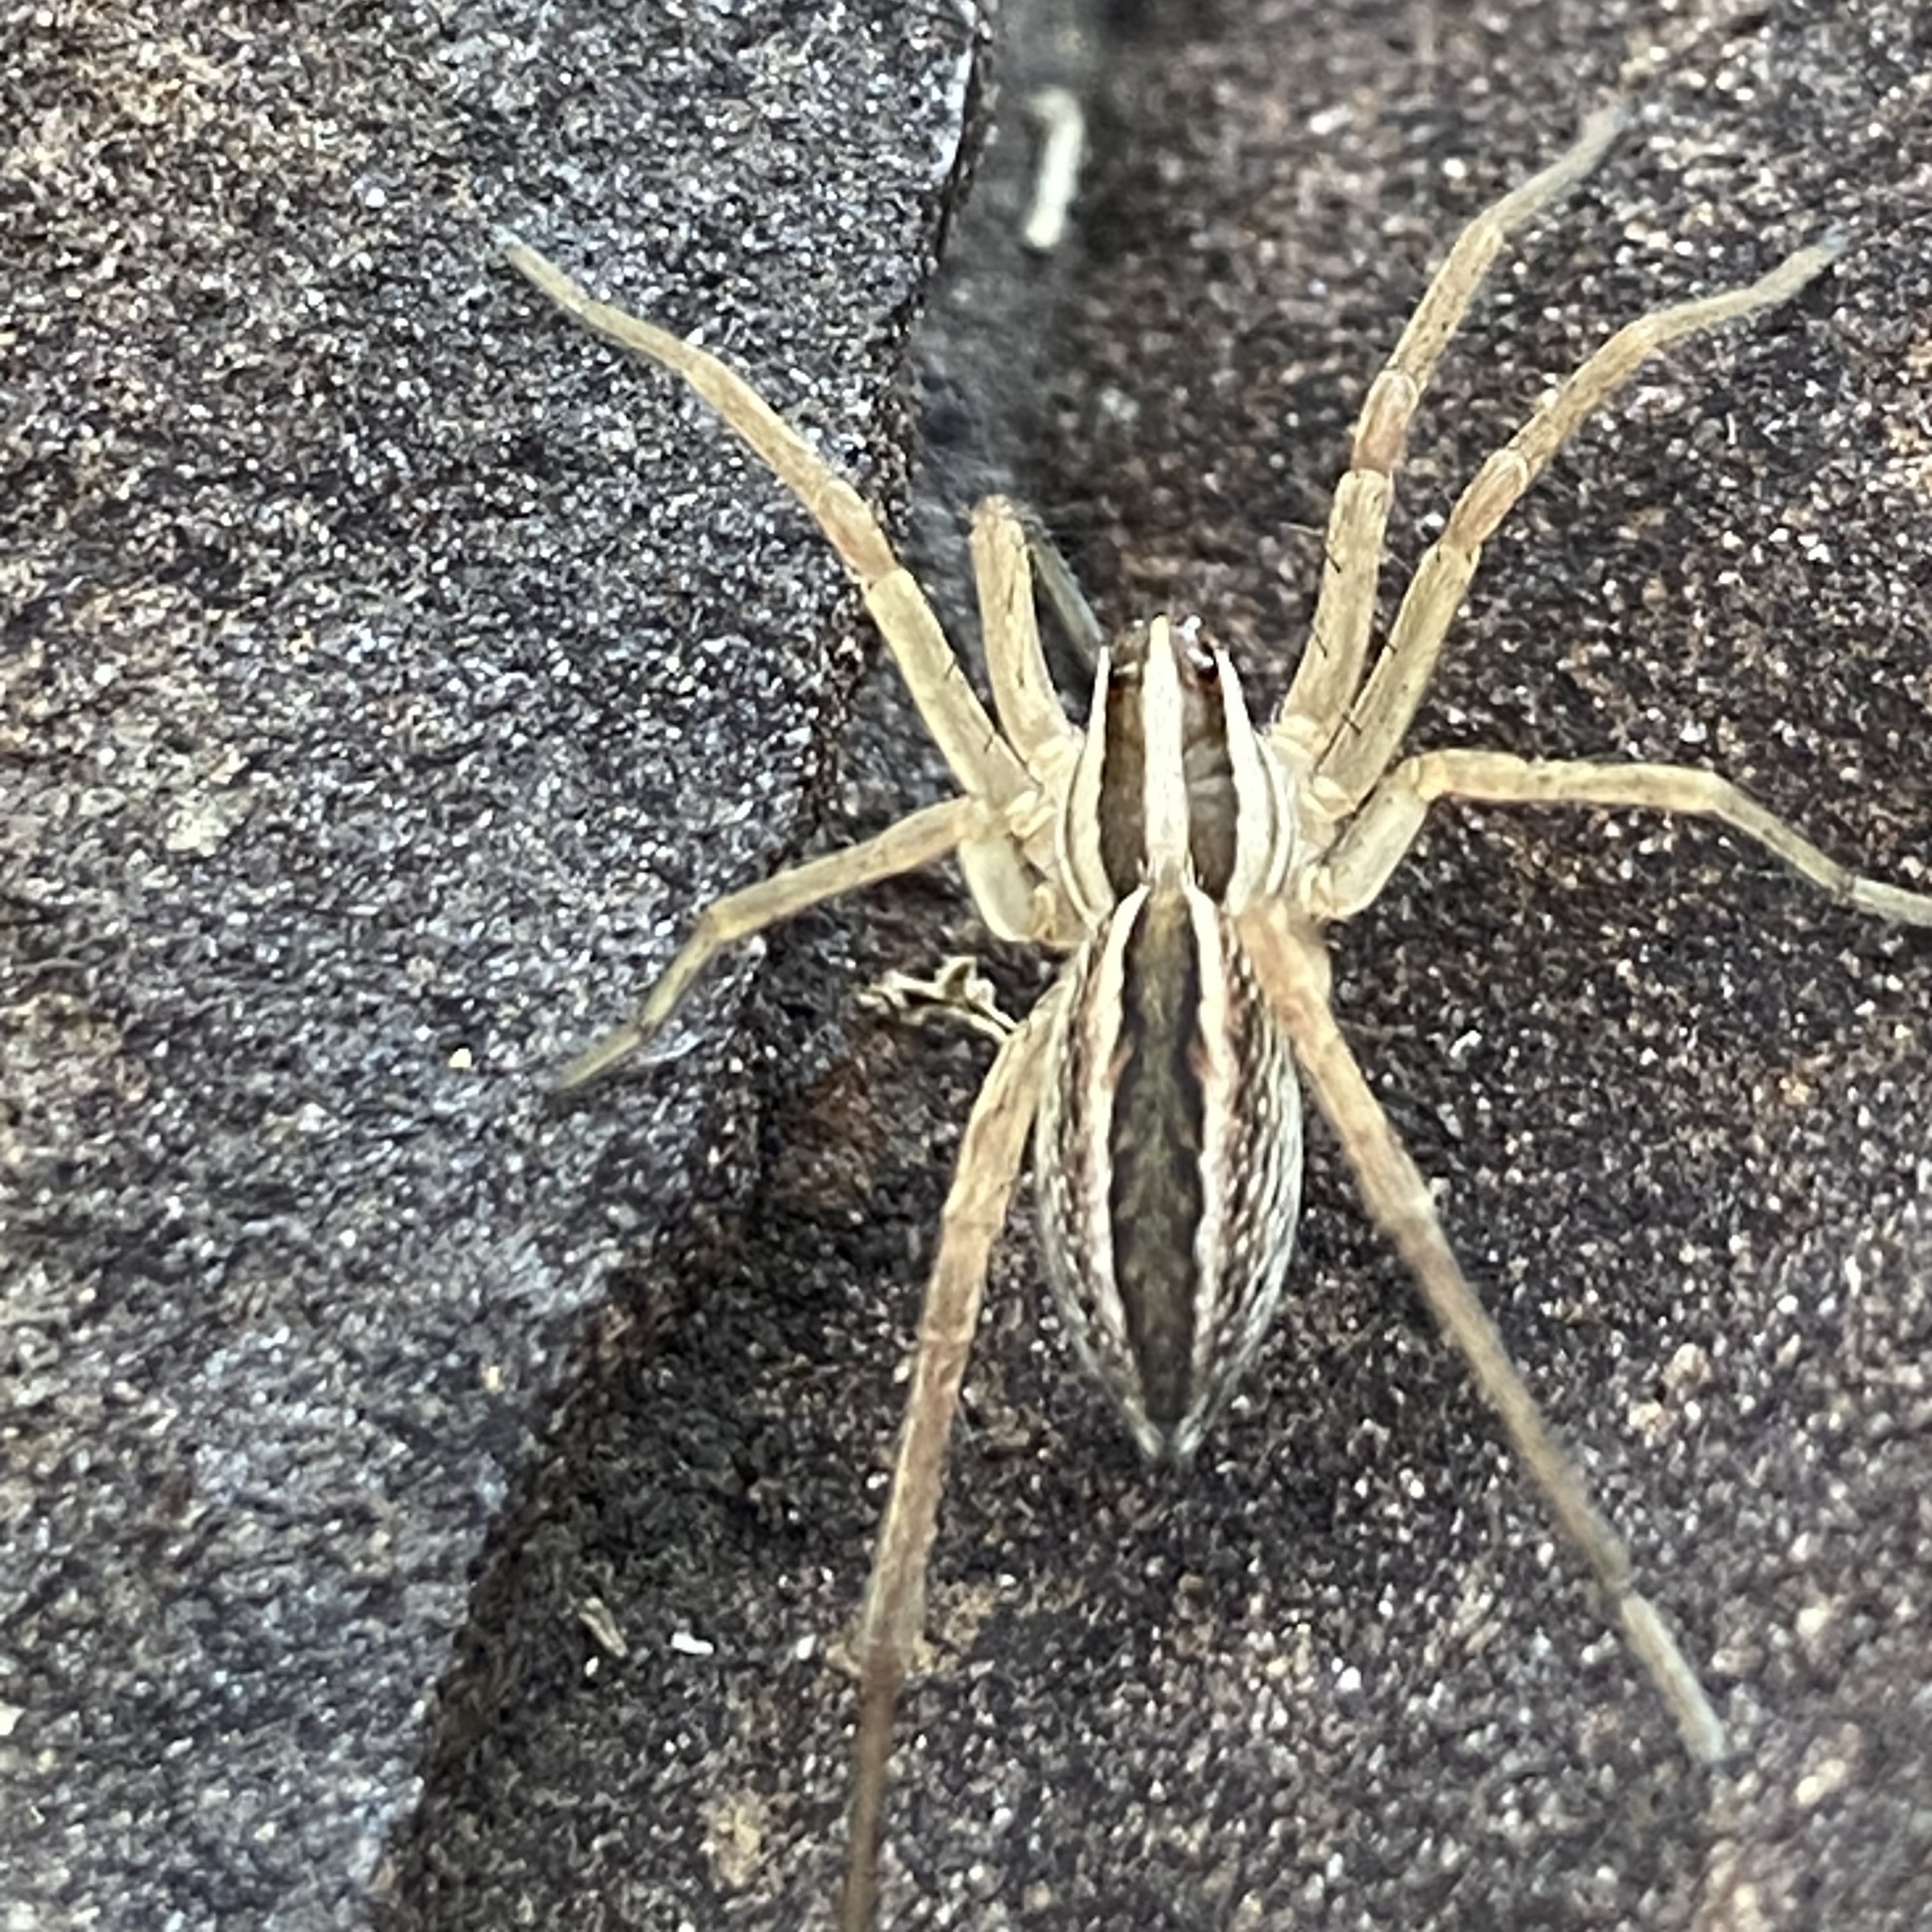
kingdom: Animalia
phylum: Arthropoda
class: Arachnida
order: Araneae
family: Lycosidae
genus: Rabidosa
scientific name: Rabidosa rabida
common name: Rabid wolf spider
